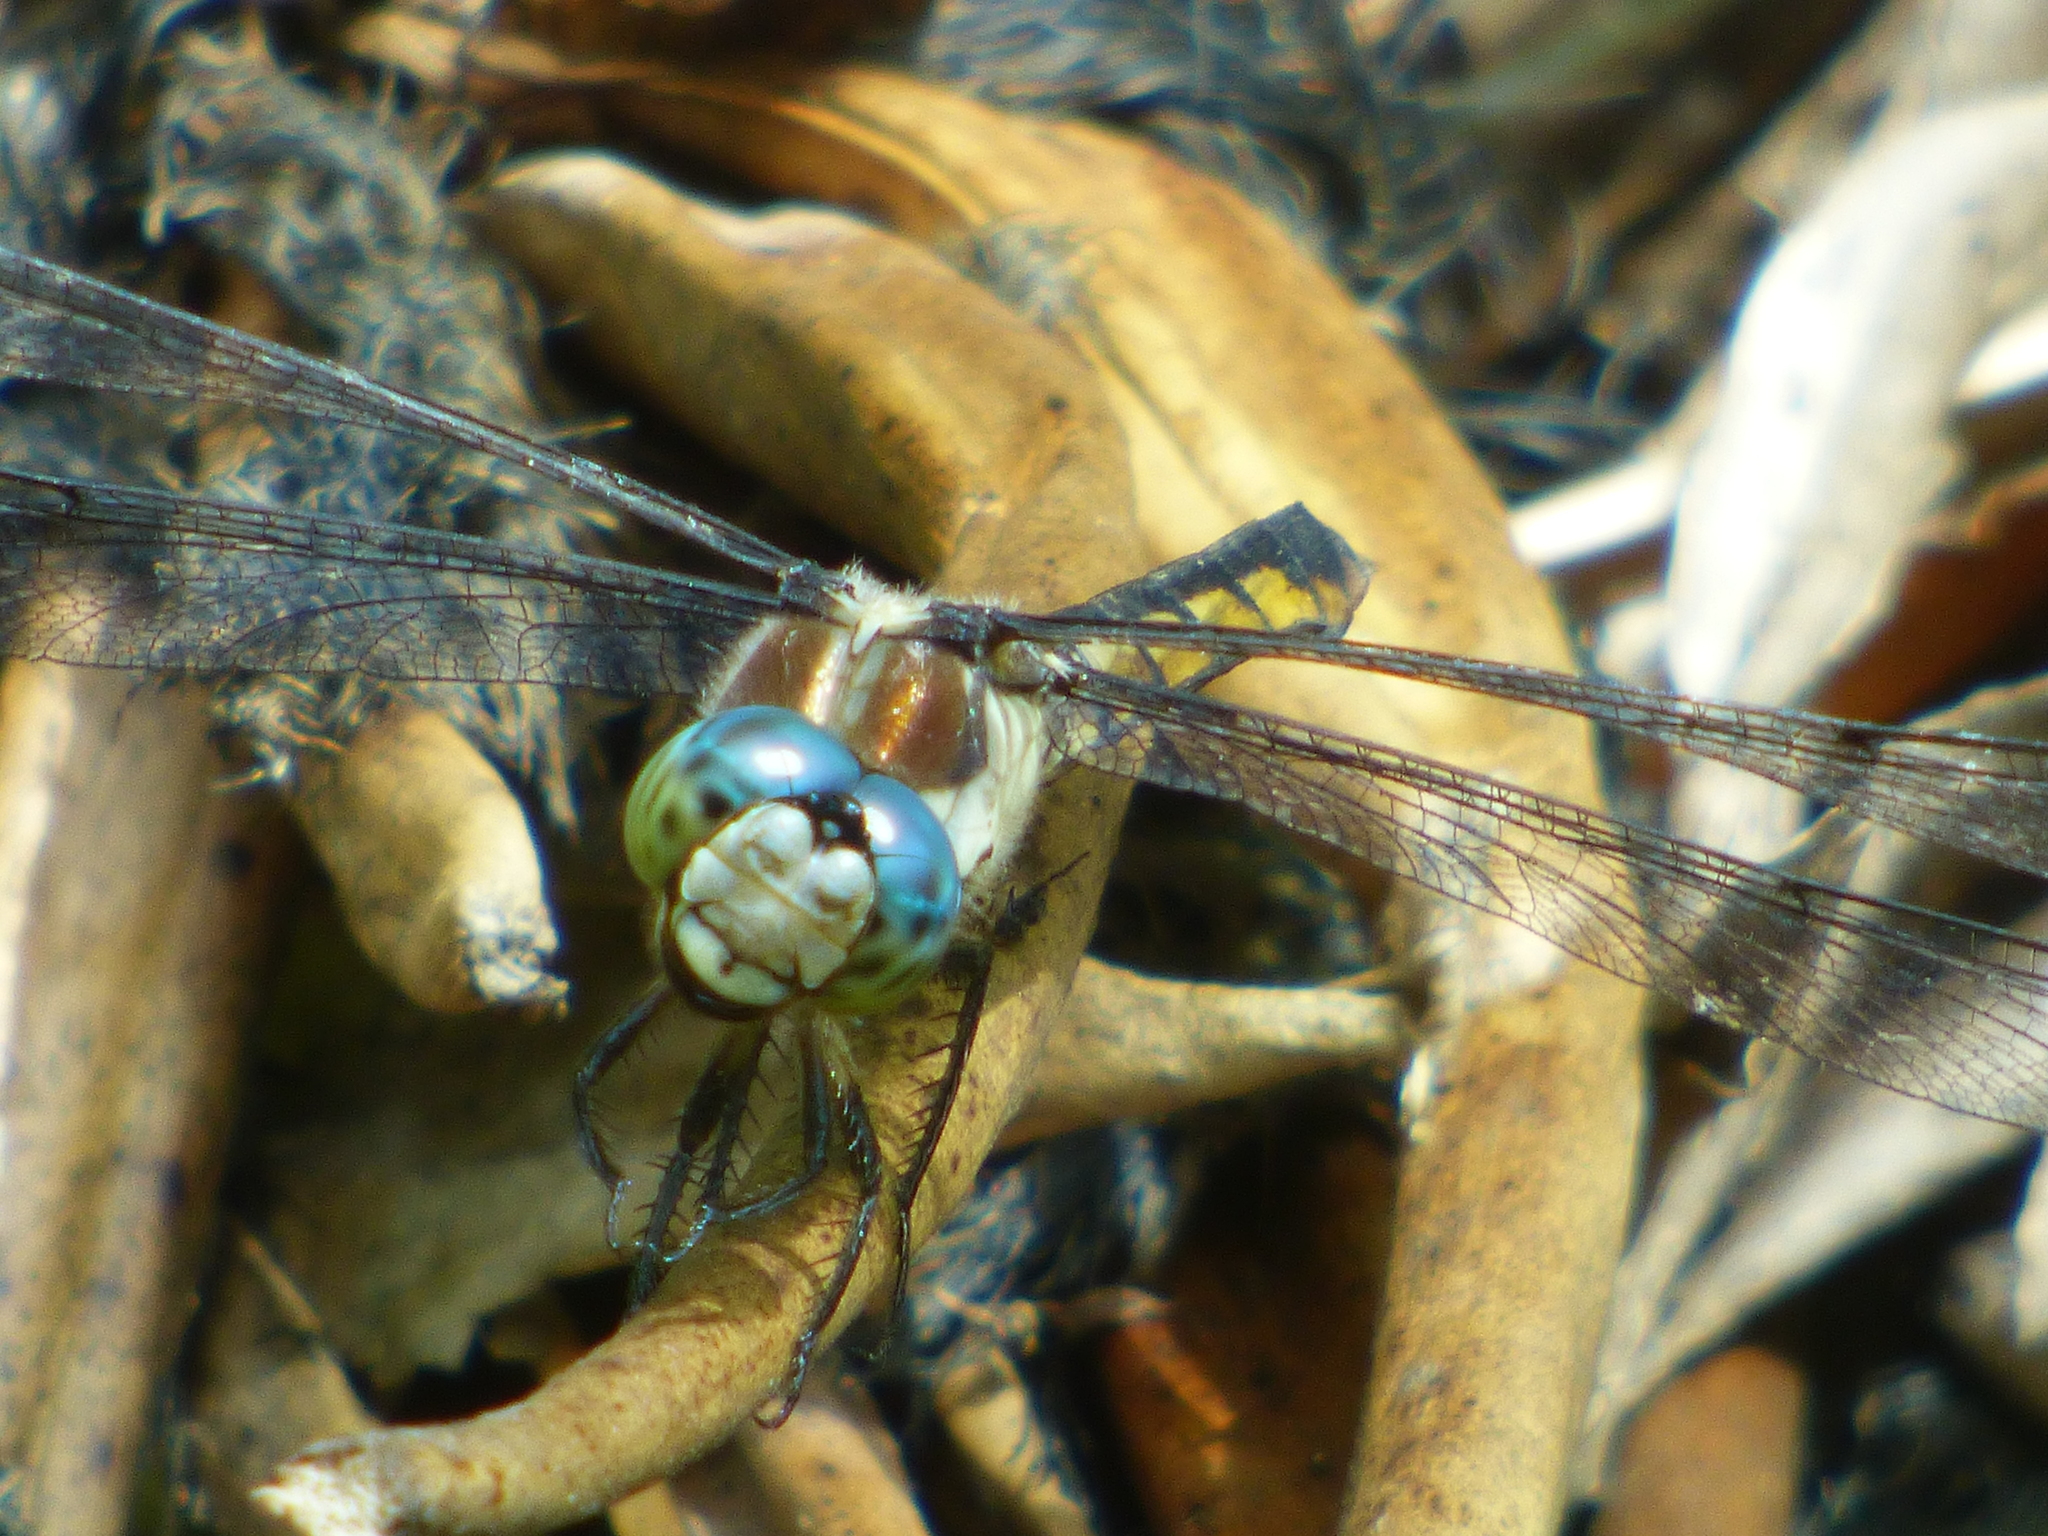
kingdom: Animalia
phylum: Arthropoda
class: Insecta
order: Odonata
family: Libellulidae
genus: Libellula
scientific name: Libellula vibrans
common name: Great blue skimmer
